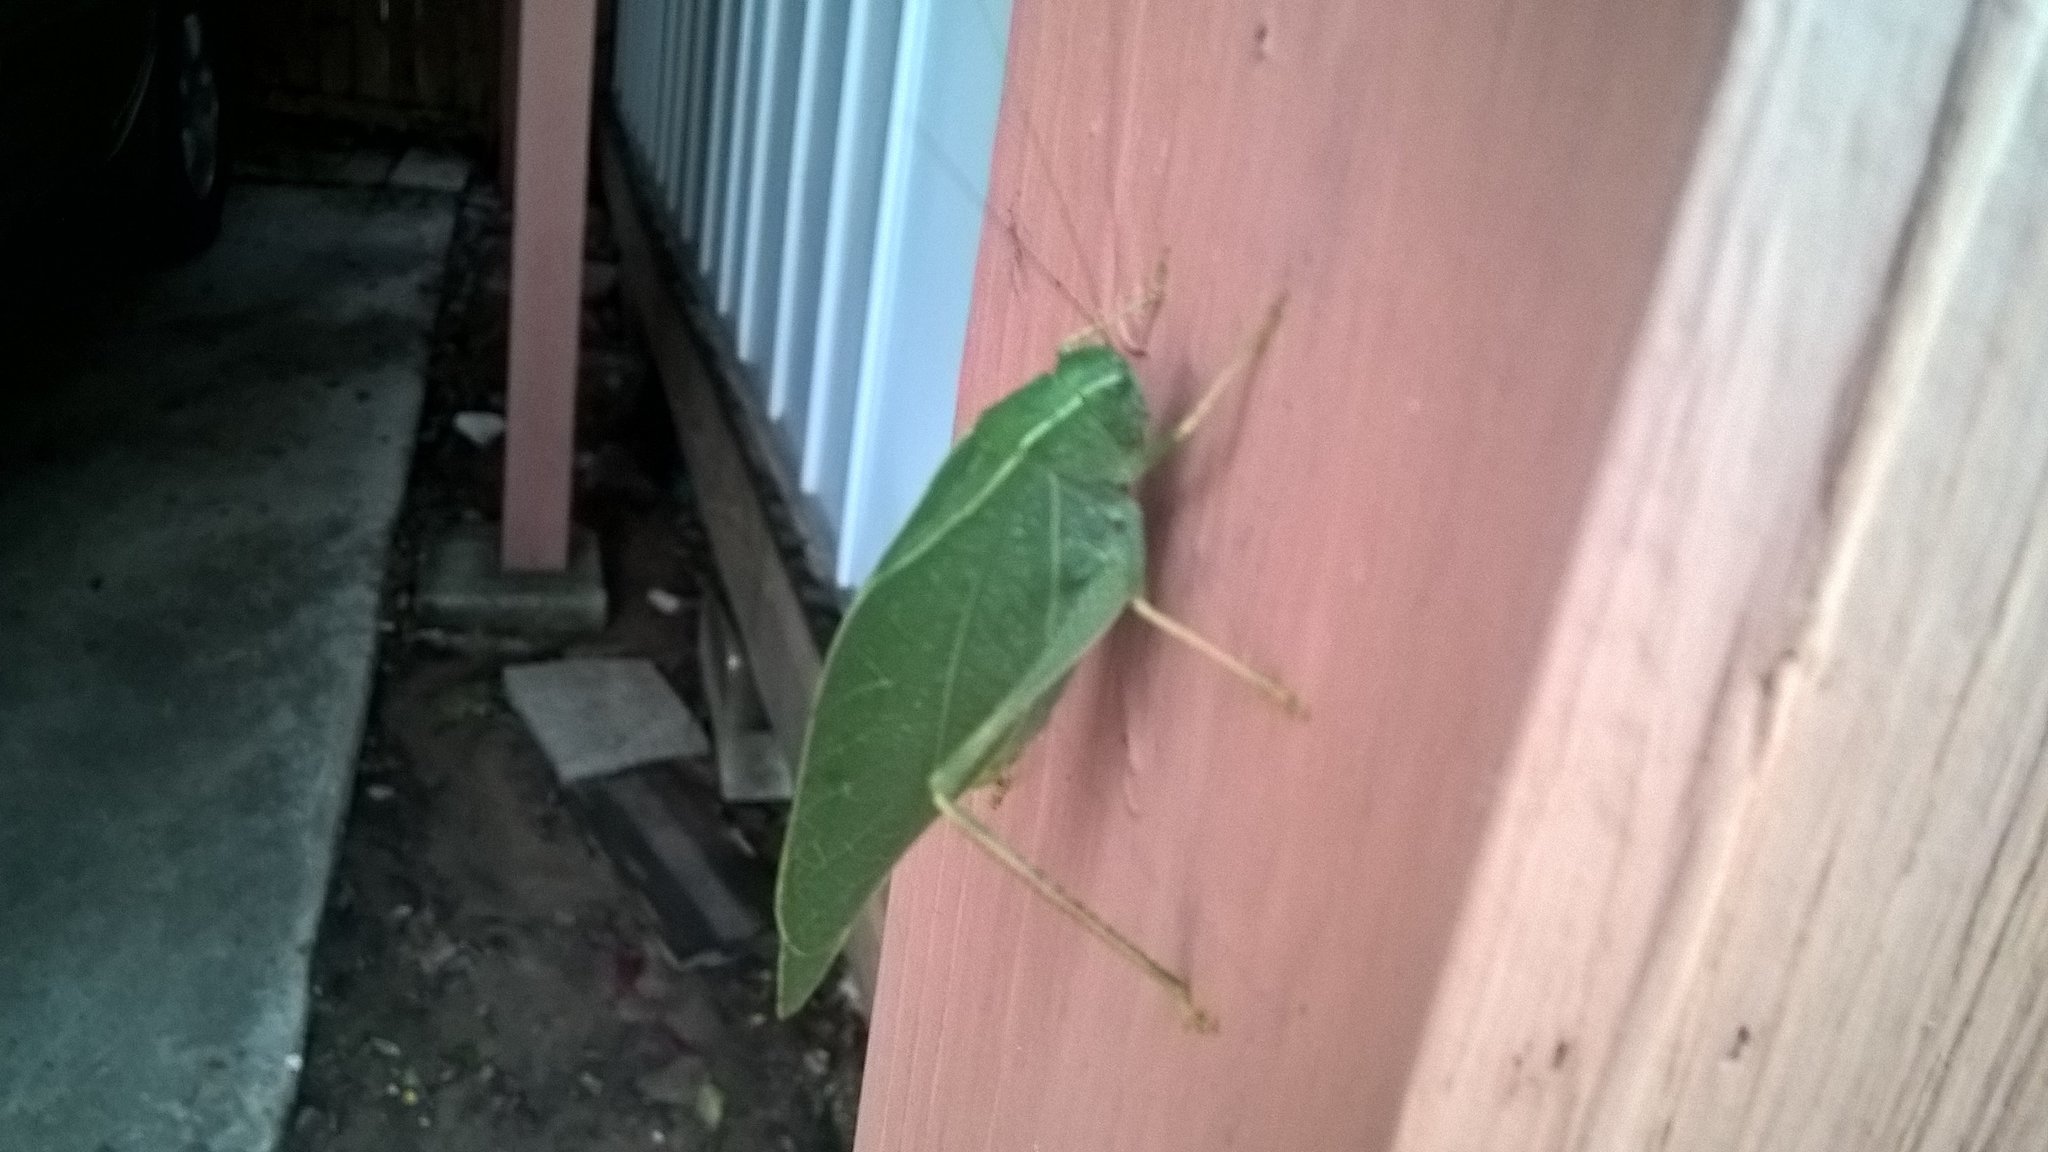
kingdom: Animalia
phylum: Arthropoda
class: Insecta
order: Orthoptera
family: Tettigoniidae
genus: Microcentrum
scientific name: Microcentrum rhombifolium
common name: Broad-winged katydid
